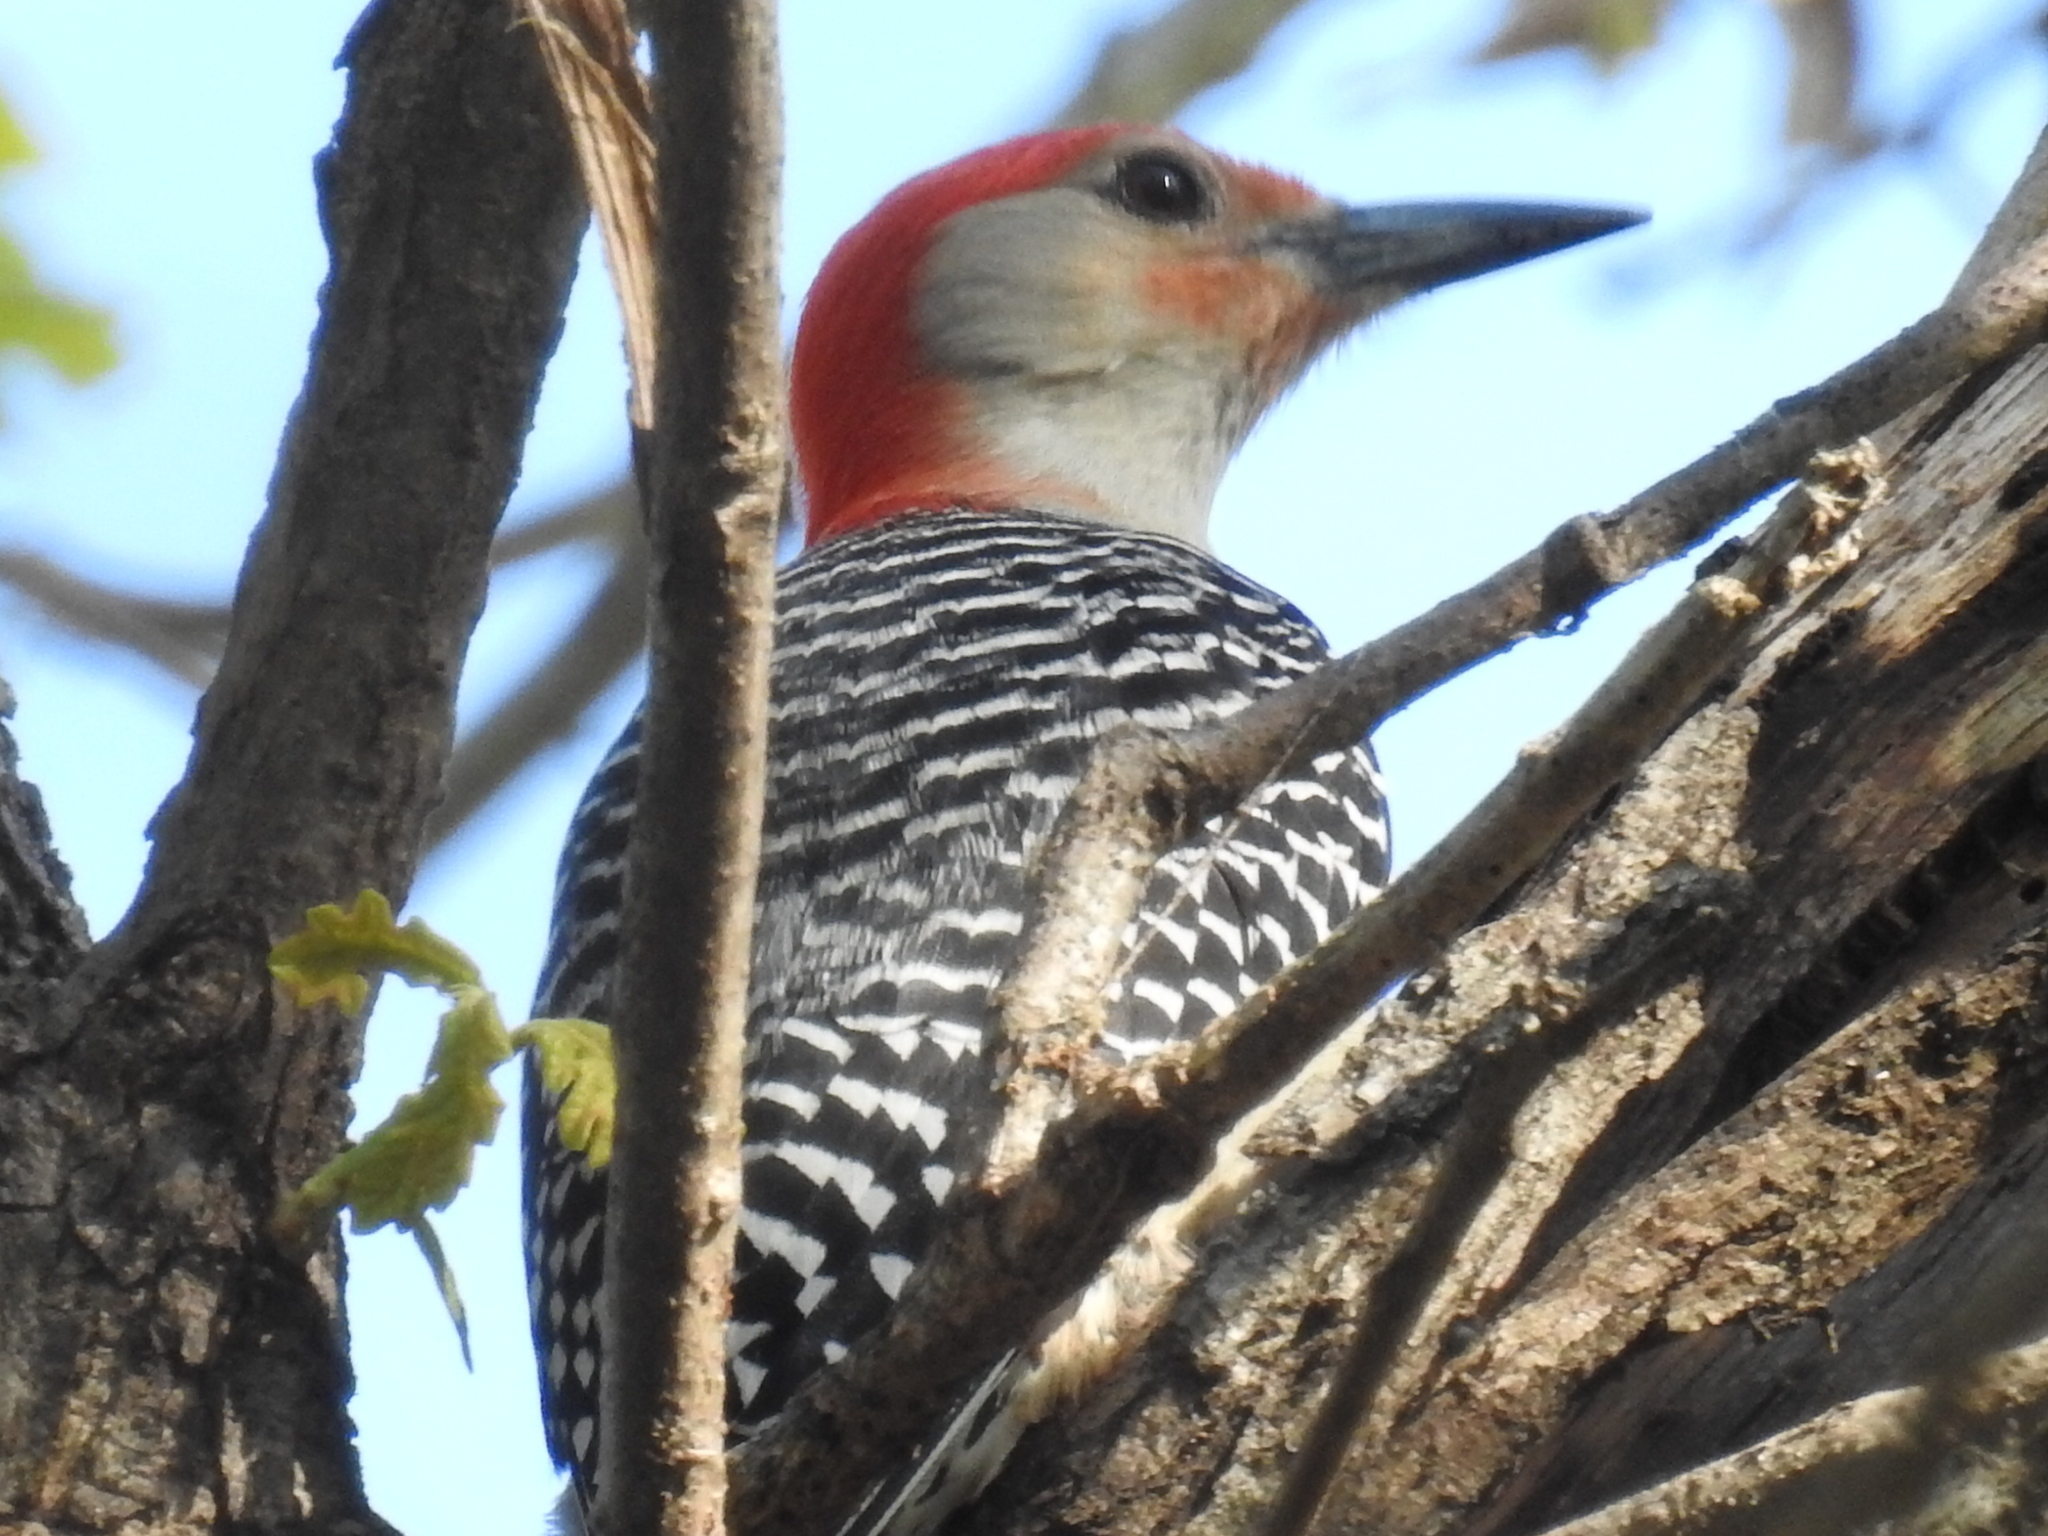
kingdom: Animalia
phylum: Chordata
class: Aves
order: Piciformes
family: Picidae
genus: Melanerpes
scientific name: Melanerpes carolinus
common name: Red-bellied woodpecker
